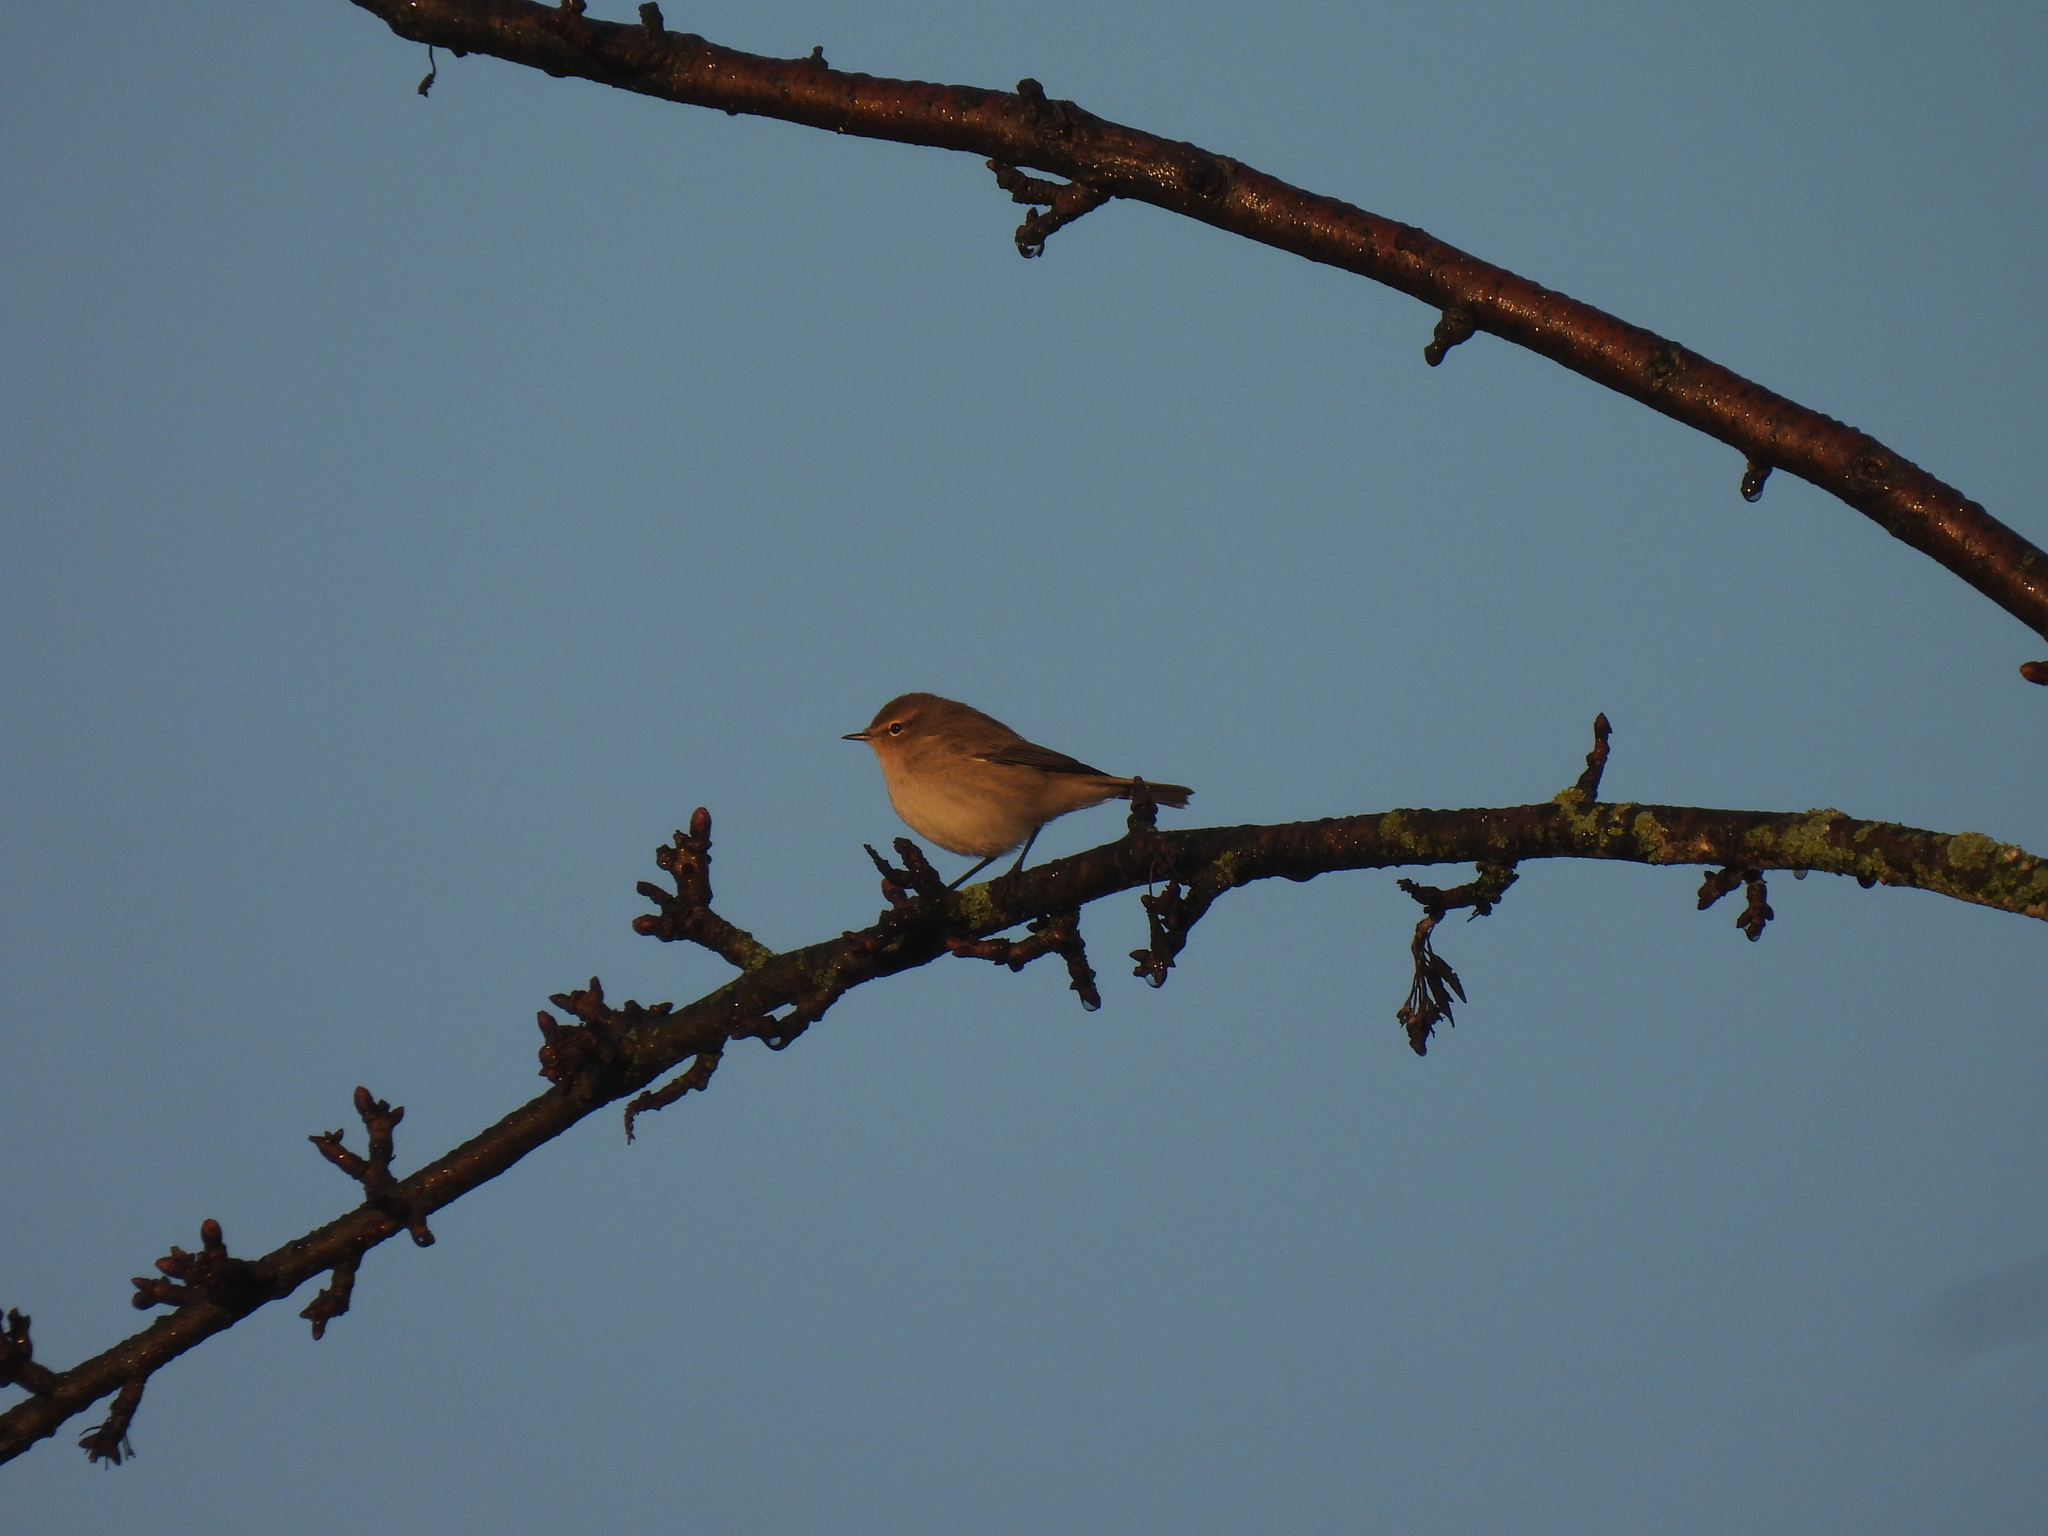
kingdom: Animalia
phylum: Chordata
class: Aves
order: Passeriformes
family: Phylloscopidae
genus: Phylloscopus
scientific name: Phylloscopus collybita
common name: Common chiffchaff
